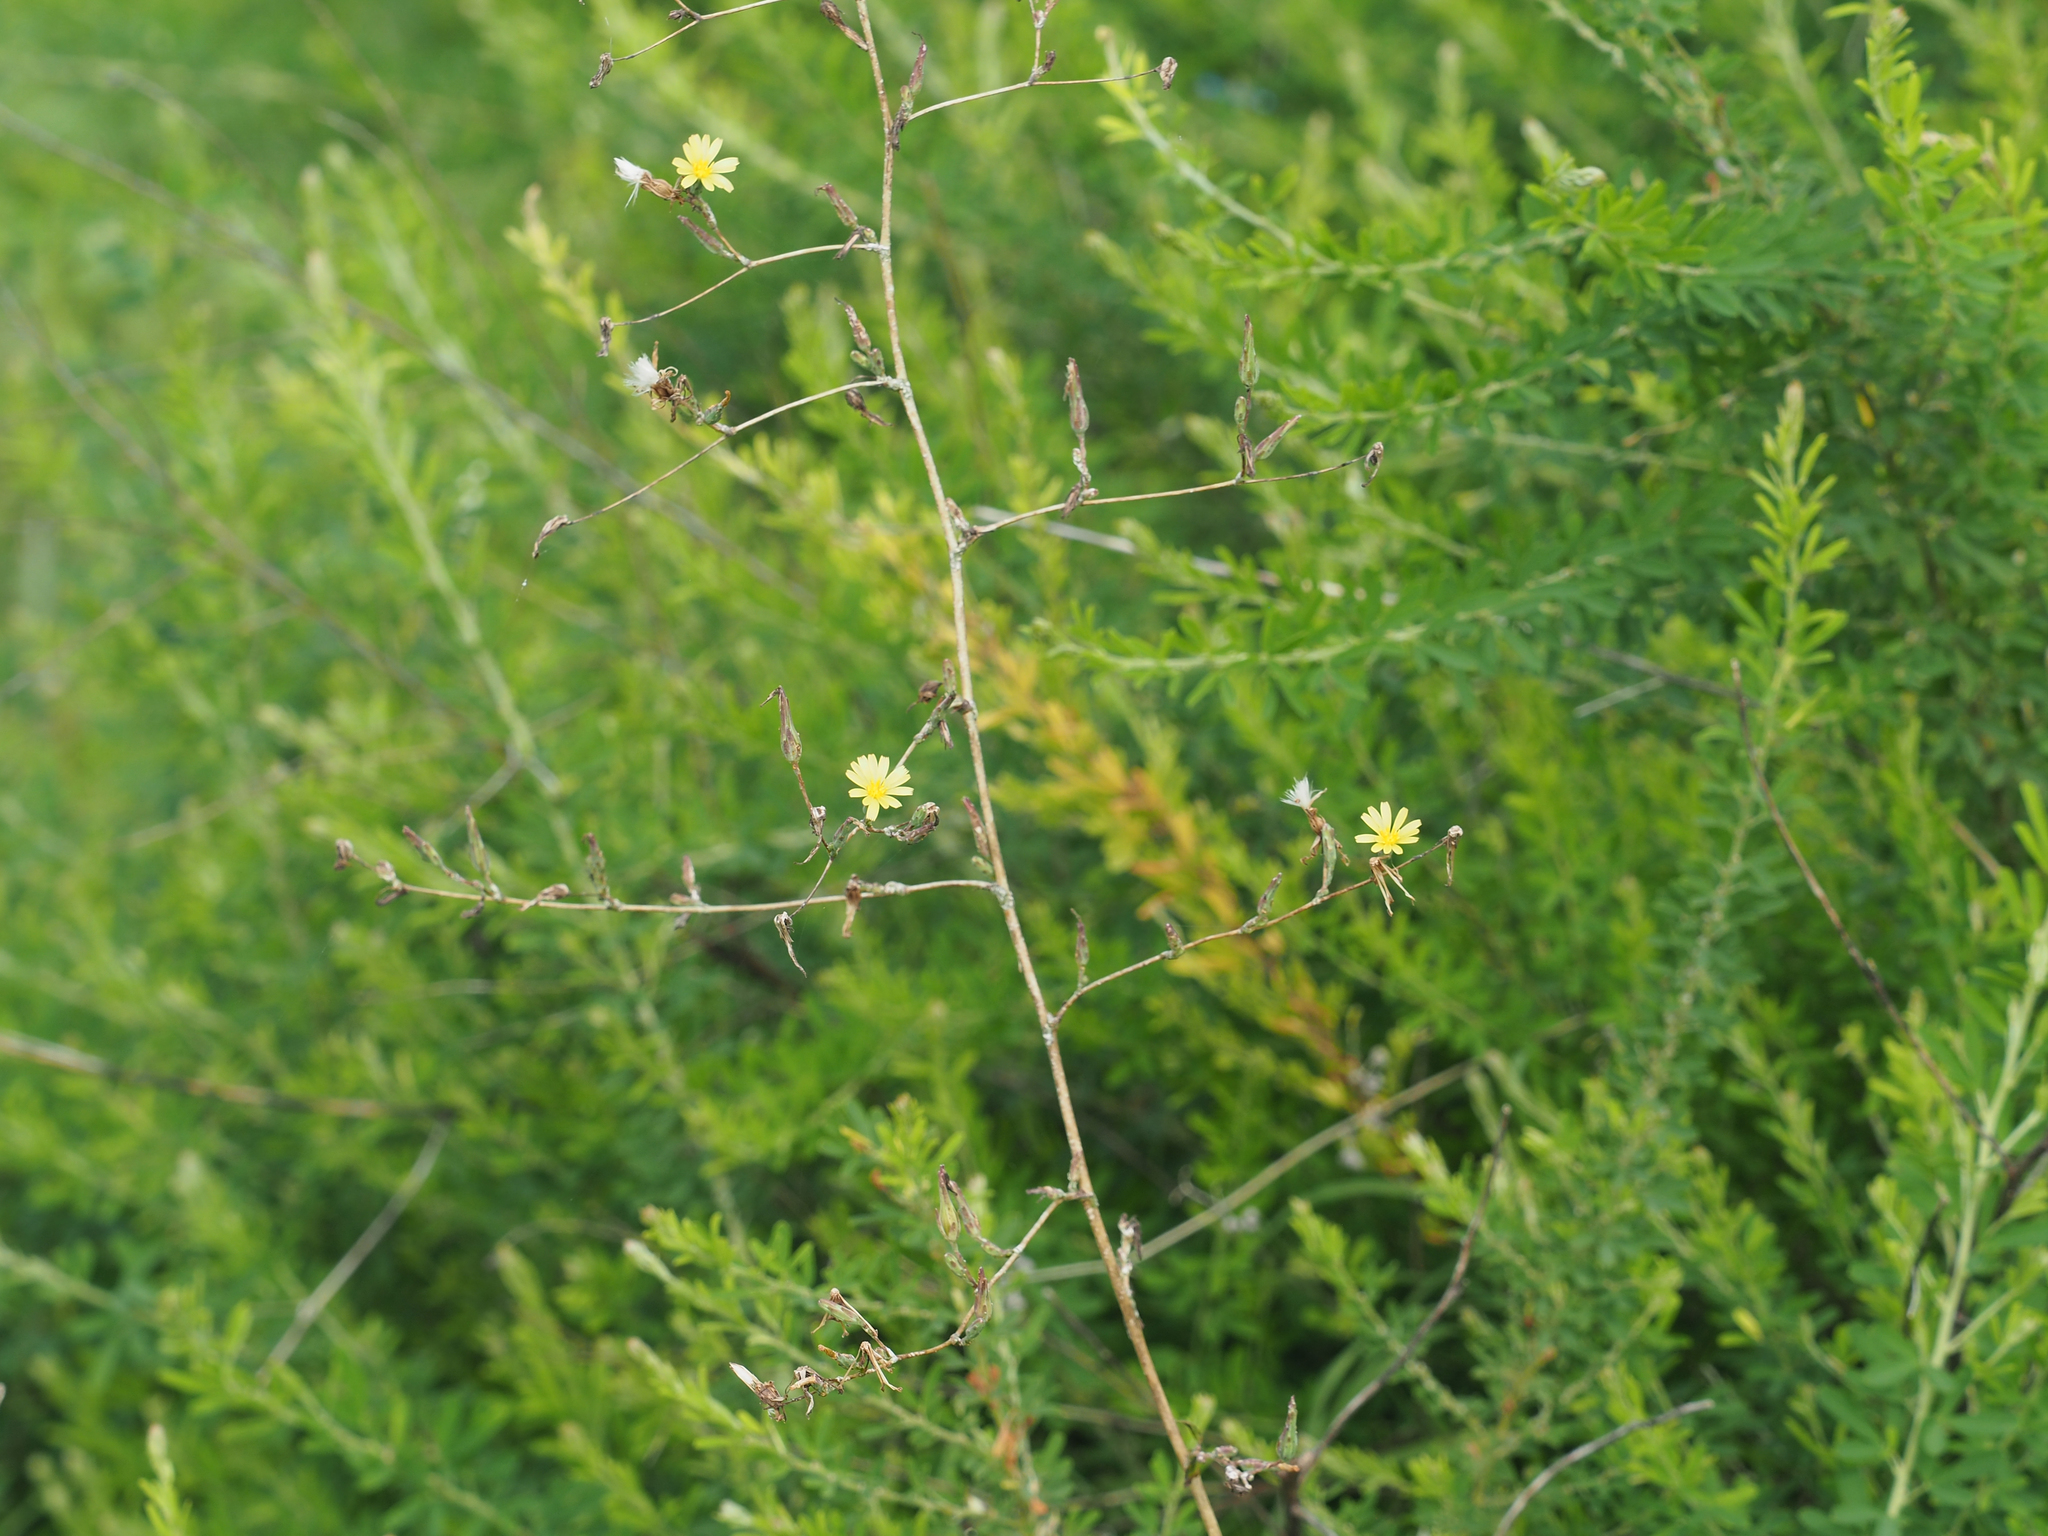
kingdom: Plantae
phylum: Tracheophyta
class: Magnoliopsida
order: Asterales
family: Asteraceae
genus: Lactuca
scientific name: Lactuca serriola
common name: Prickly lettuce
